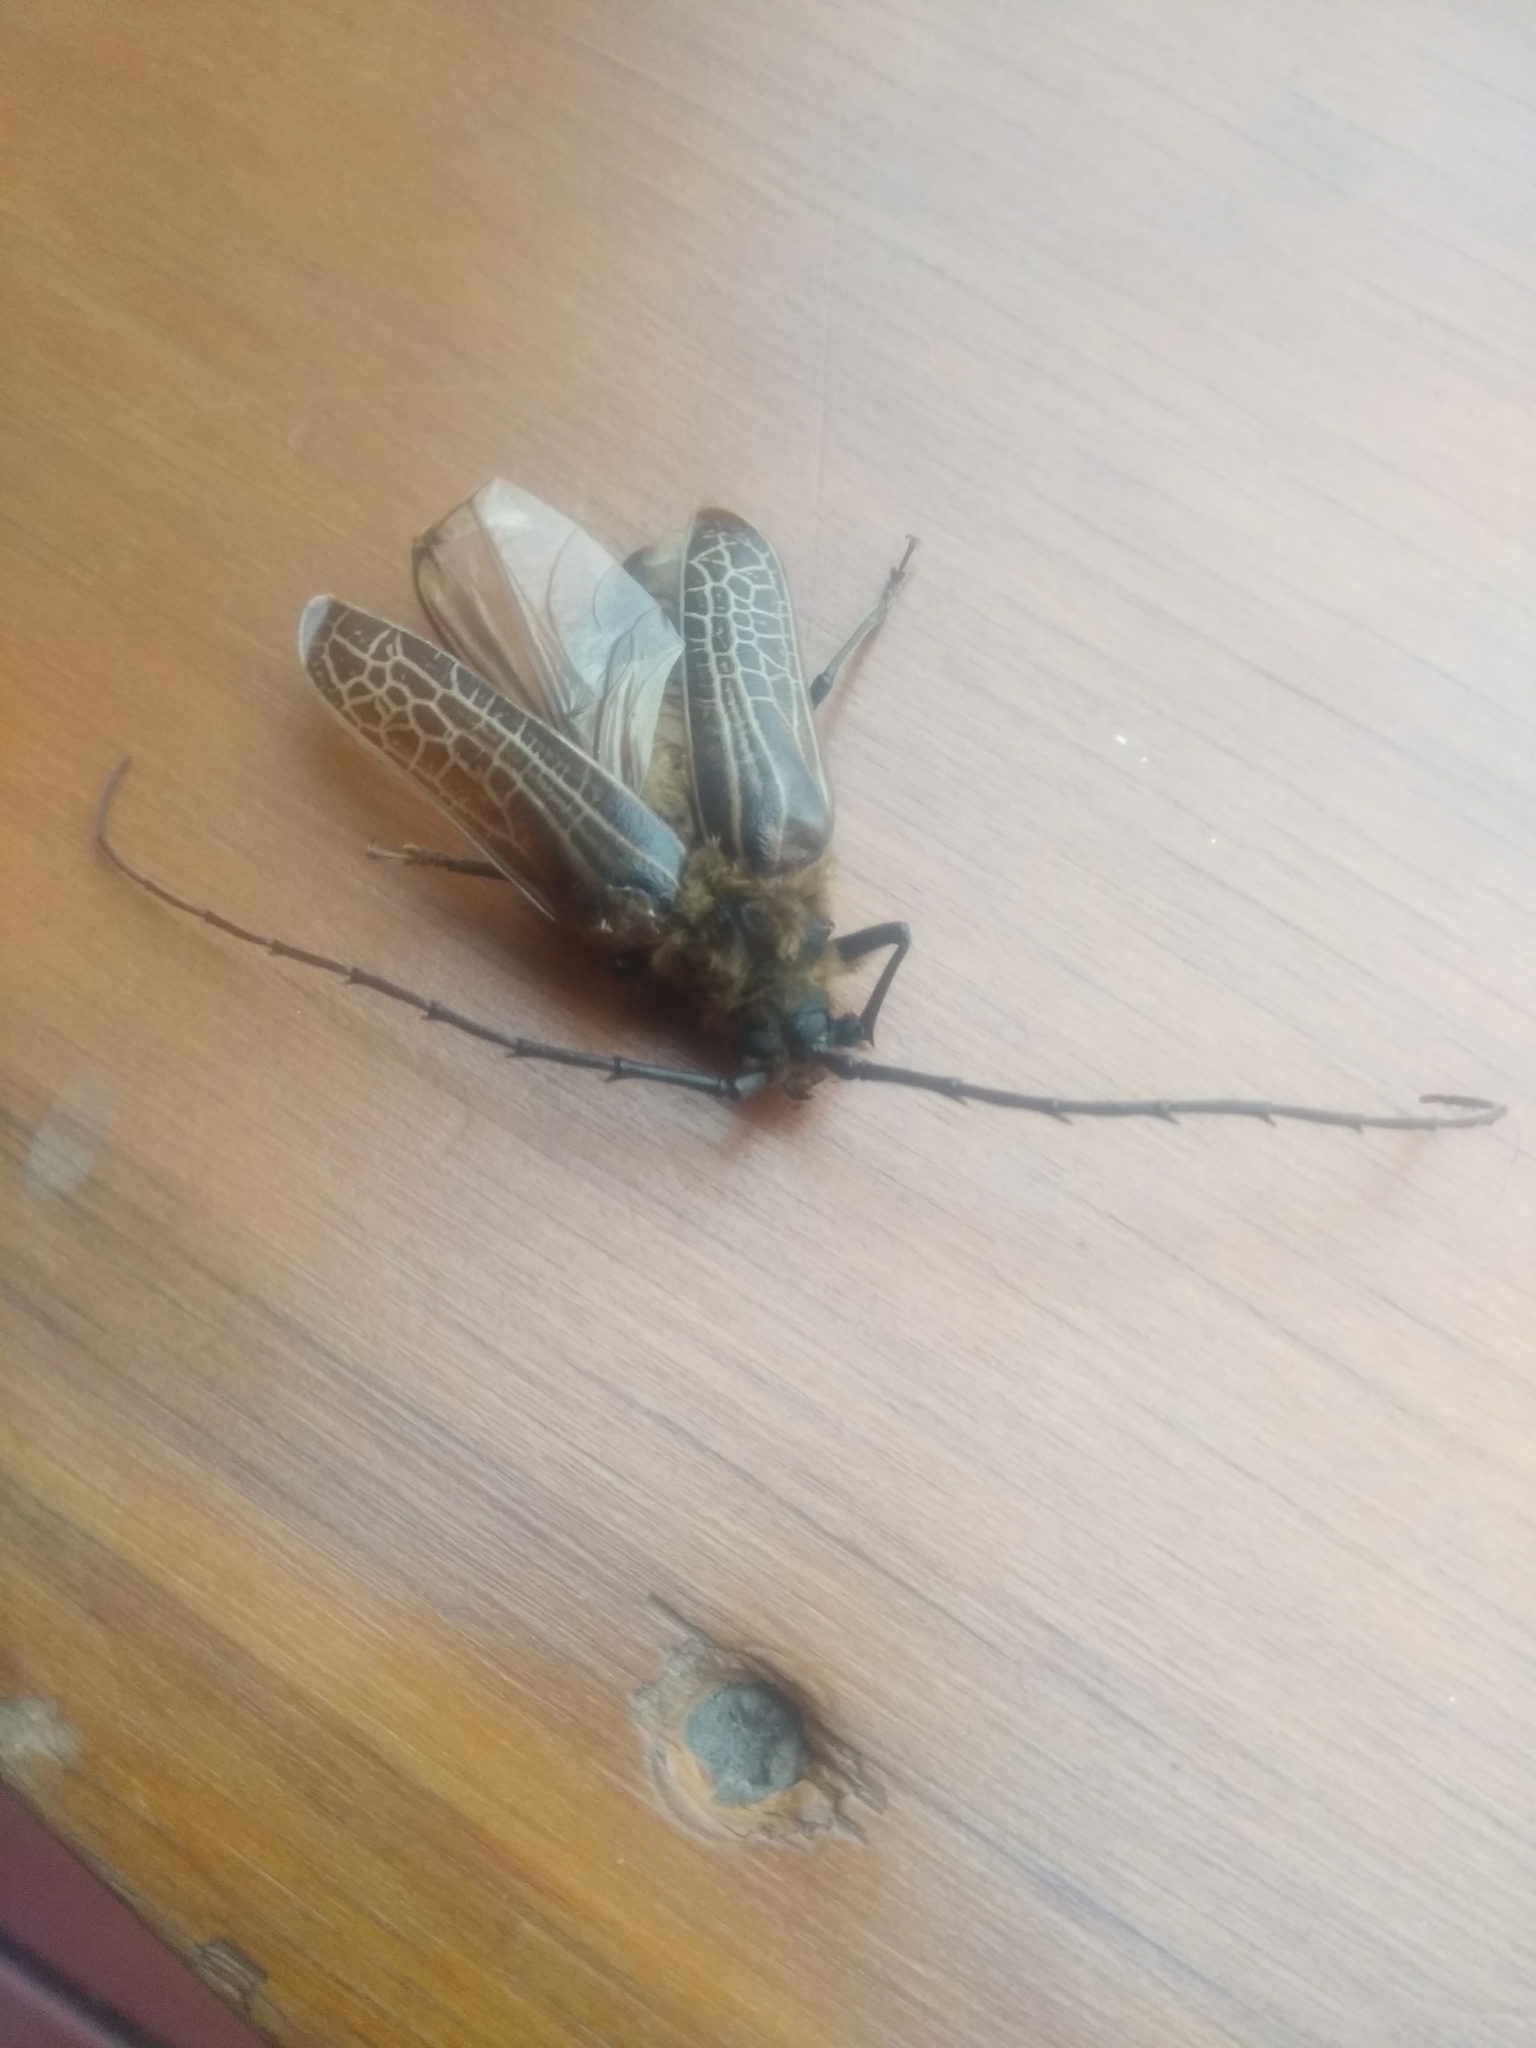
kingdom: Animalia
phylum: Arthropoda
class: Insecta
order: Coleoptera
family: Cerambycidae
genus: Prionoplus
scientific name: Prionoplus reticularis
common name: Huhu beetle
